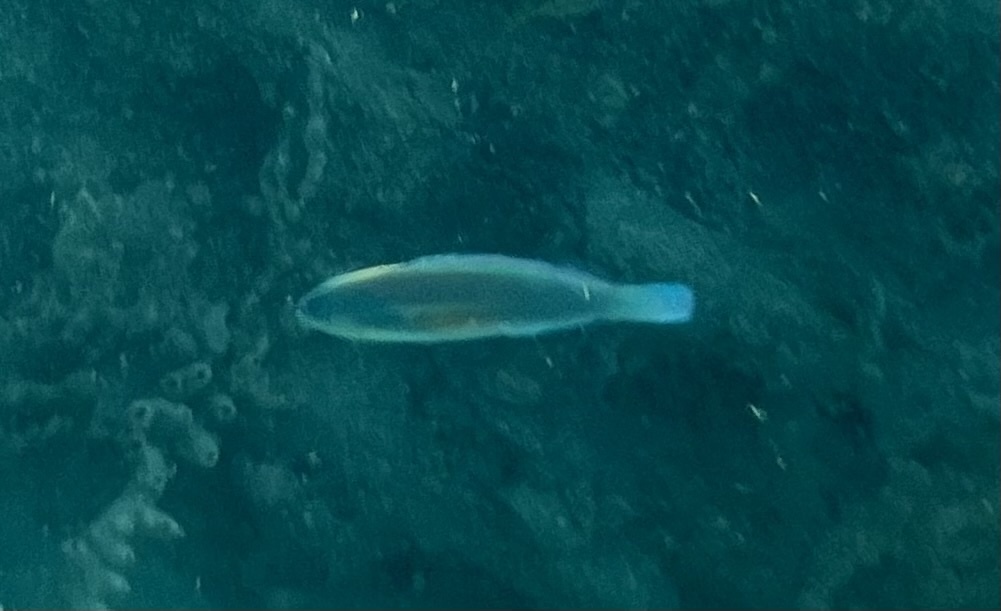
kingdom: Animalia
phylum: Chordata
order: Perciformes
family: Scaridae
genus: Scarus
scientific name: Scarus iseri
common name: Striped parrotfish
